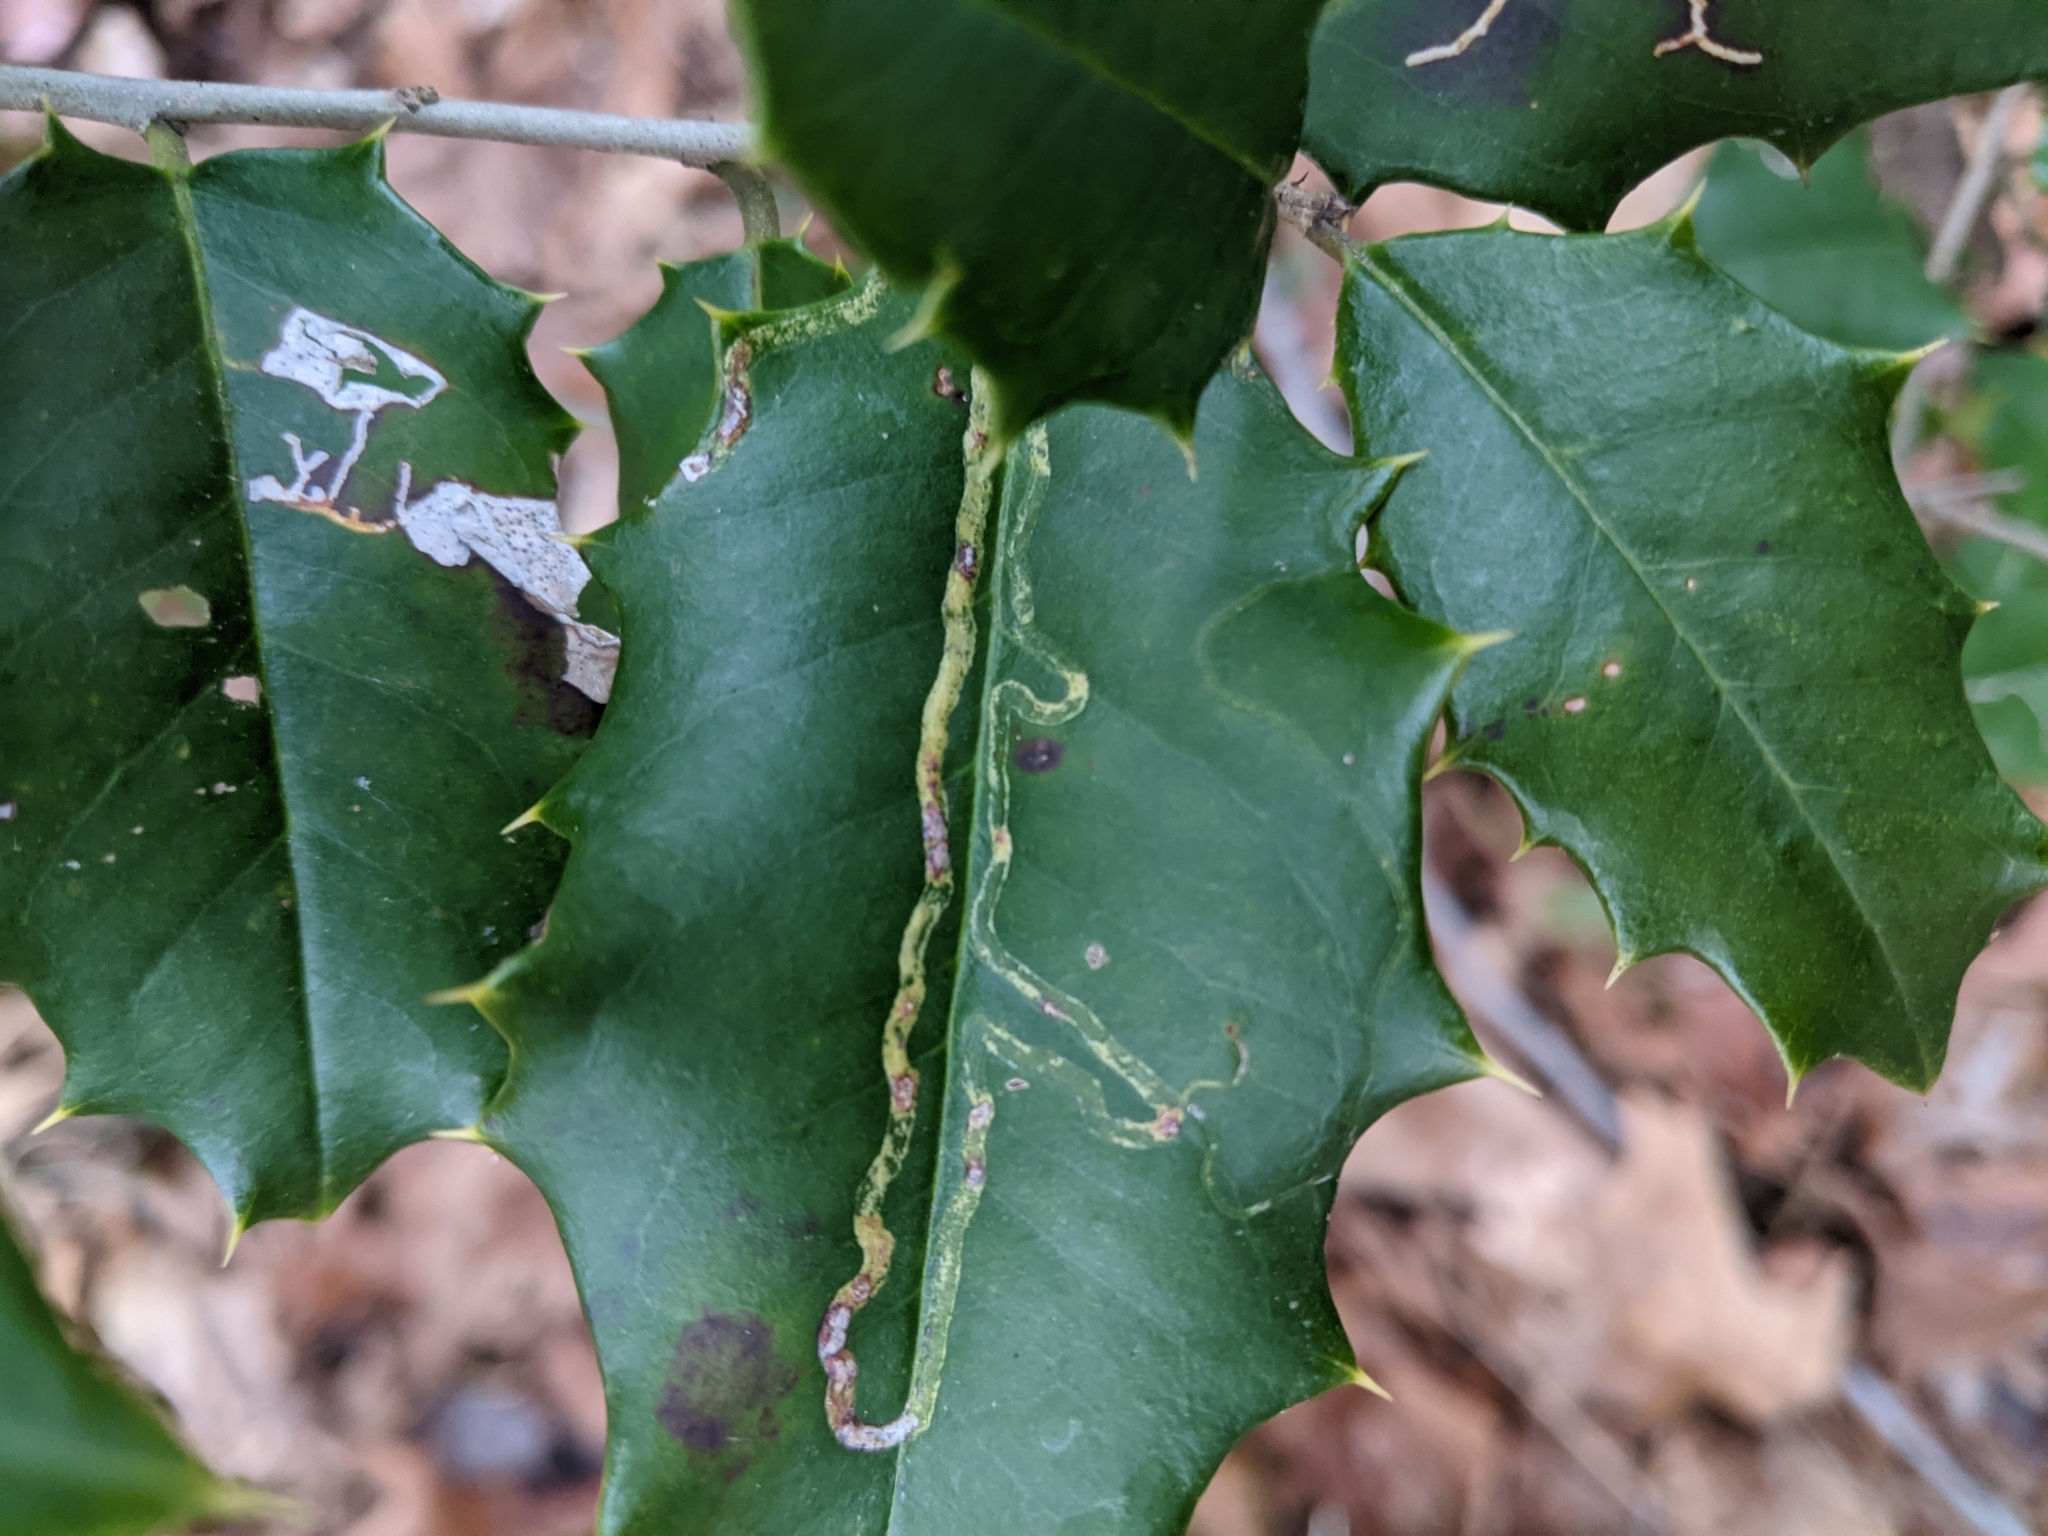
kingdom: Animalia
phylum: Arthropoda
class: Insecta
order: Diptera
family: Agromyzidae
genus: Phytomyza
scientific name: Phytomyza opacae
